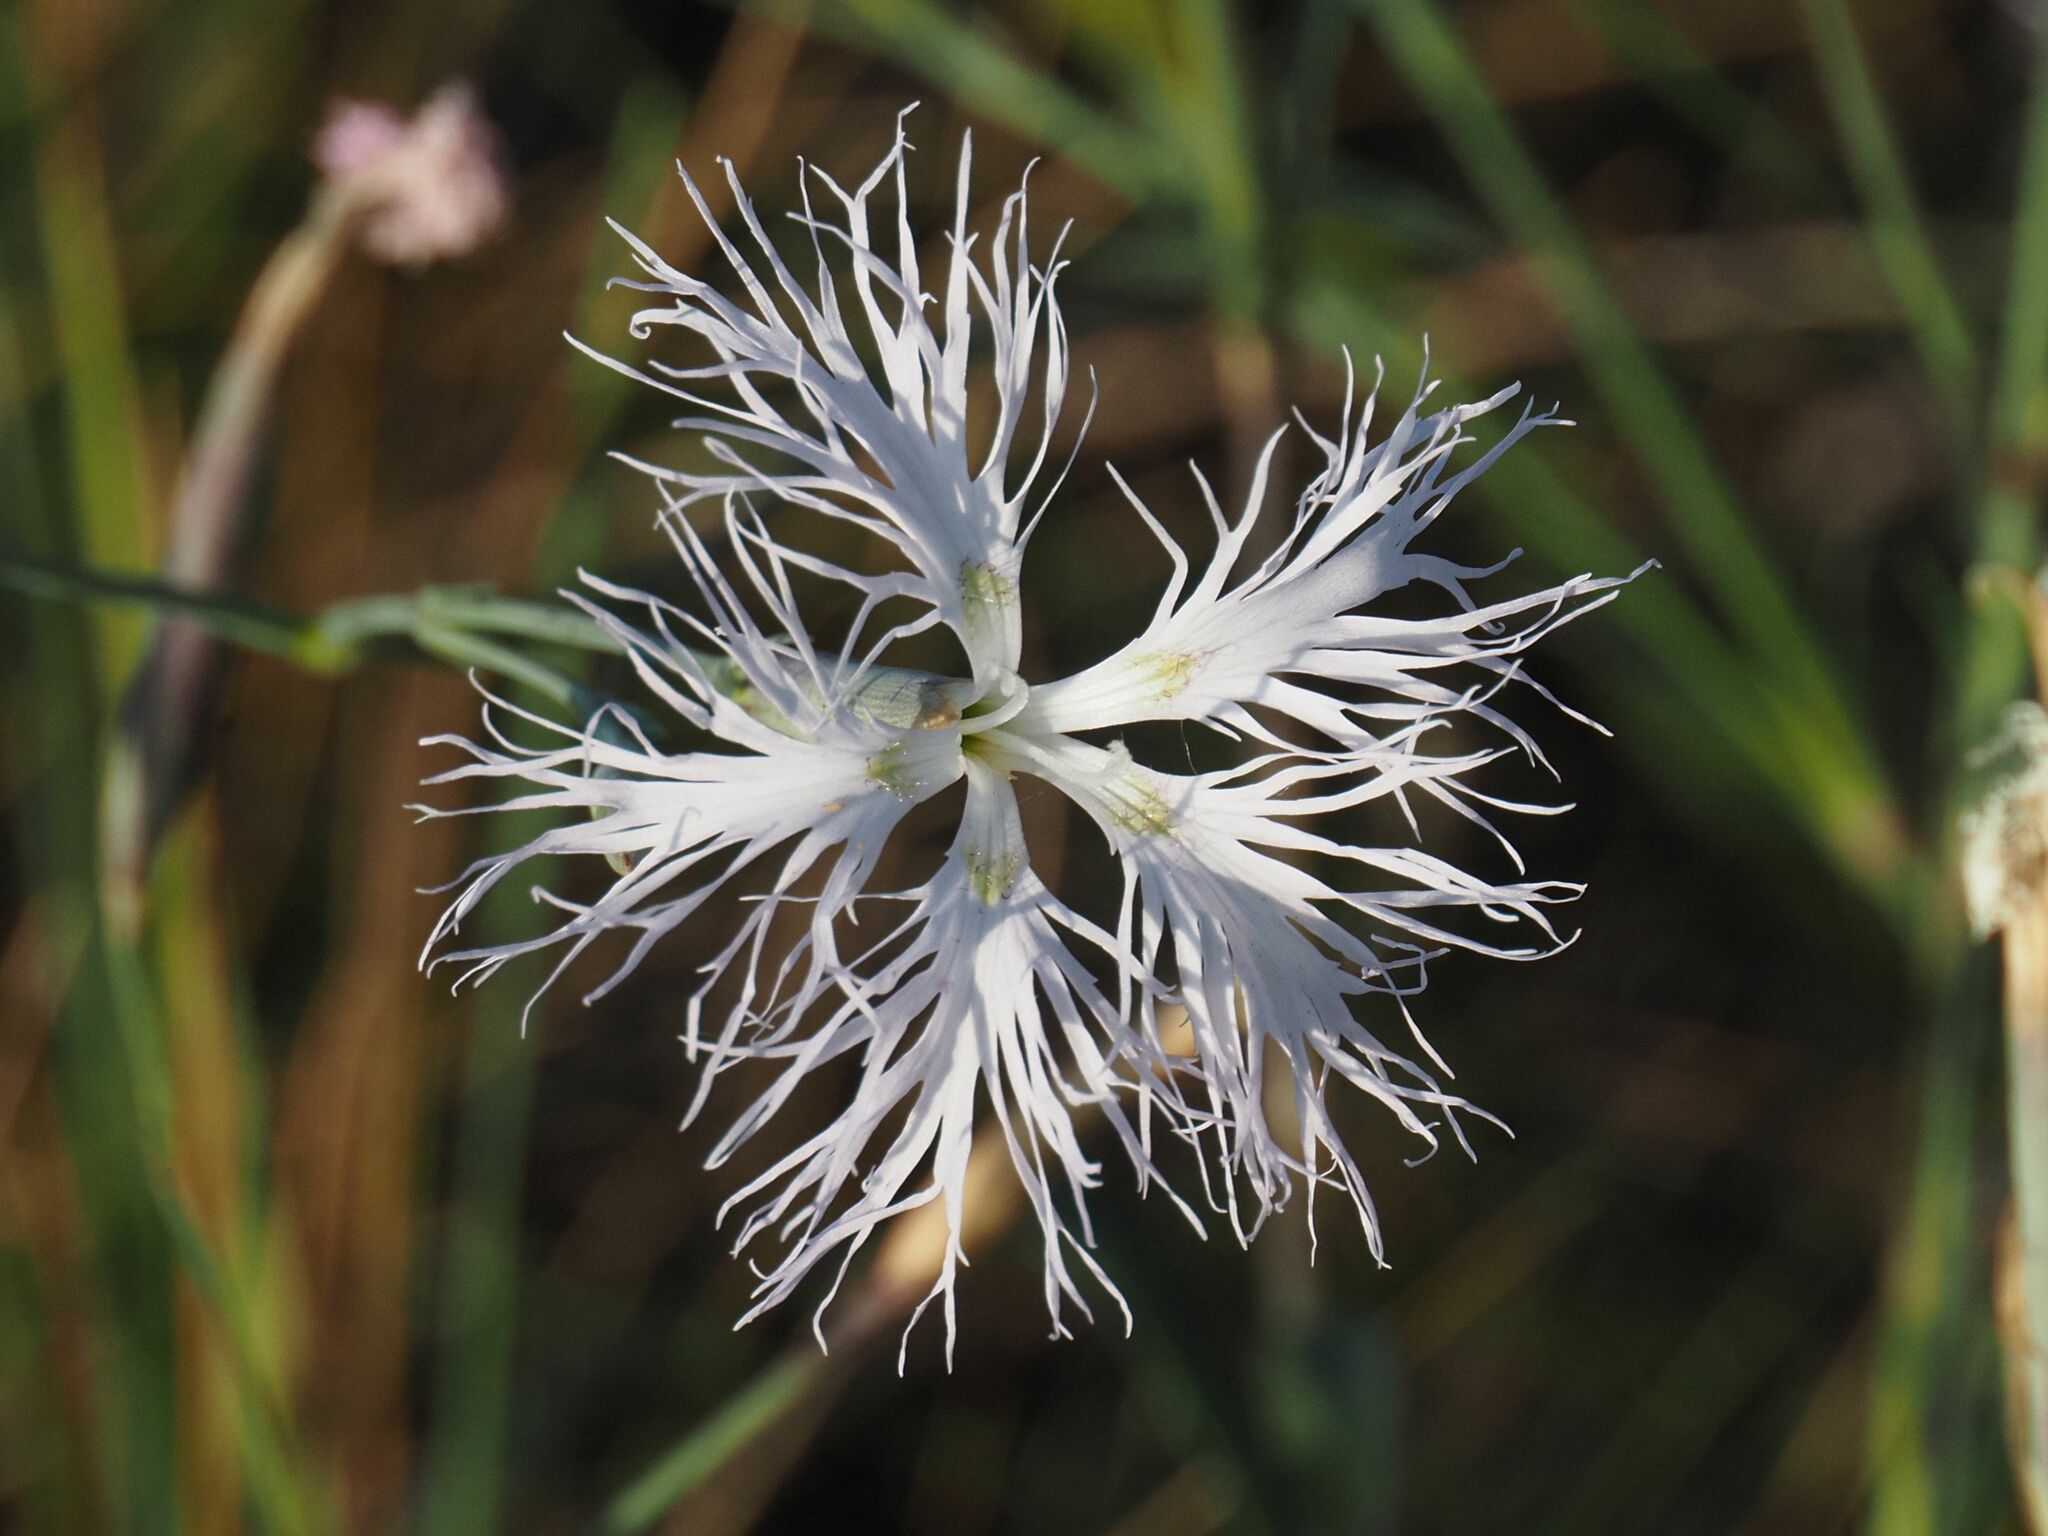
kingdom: Plantae
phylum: Tracheophyta
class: Magnoliopsida
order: Caryophyllales
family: Caryophyllaceae
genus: Dianthus
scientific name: Dianthus superbus
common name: Fringed pink
